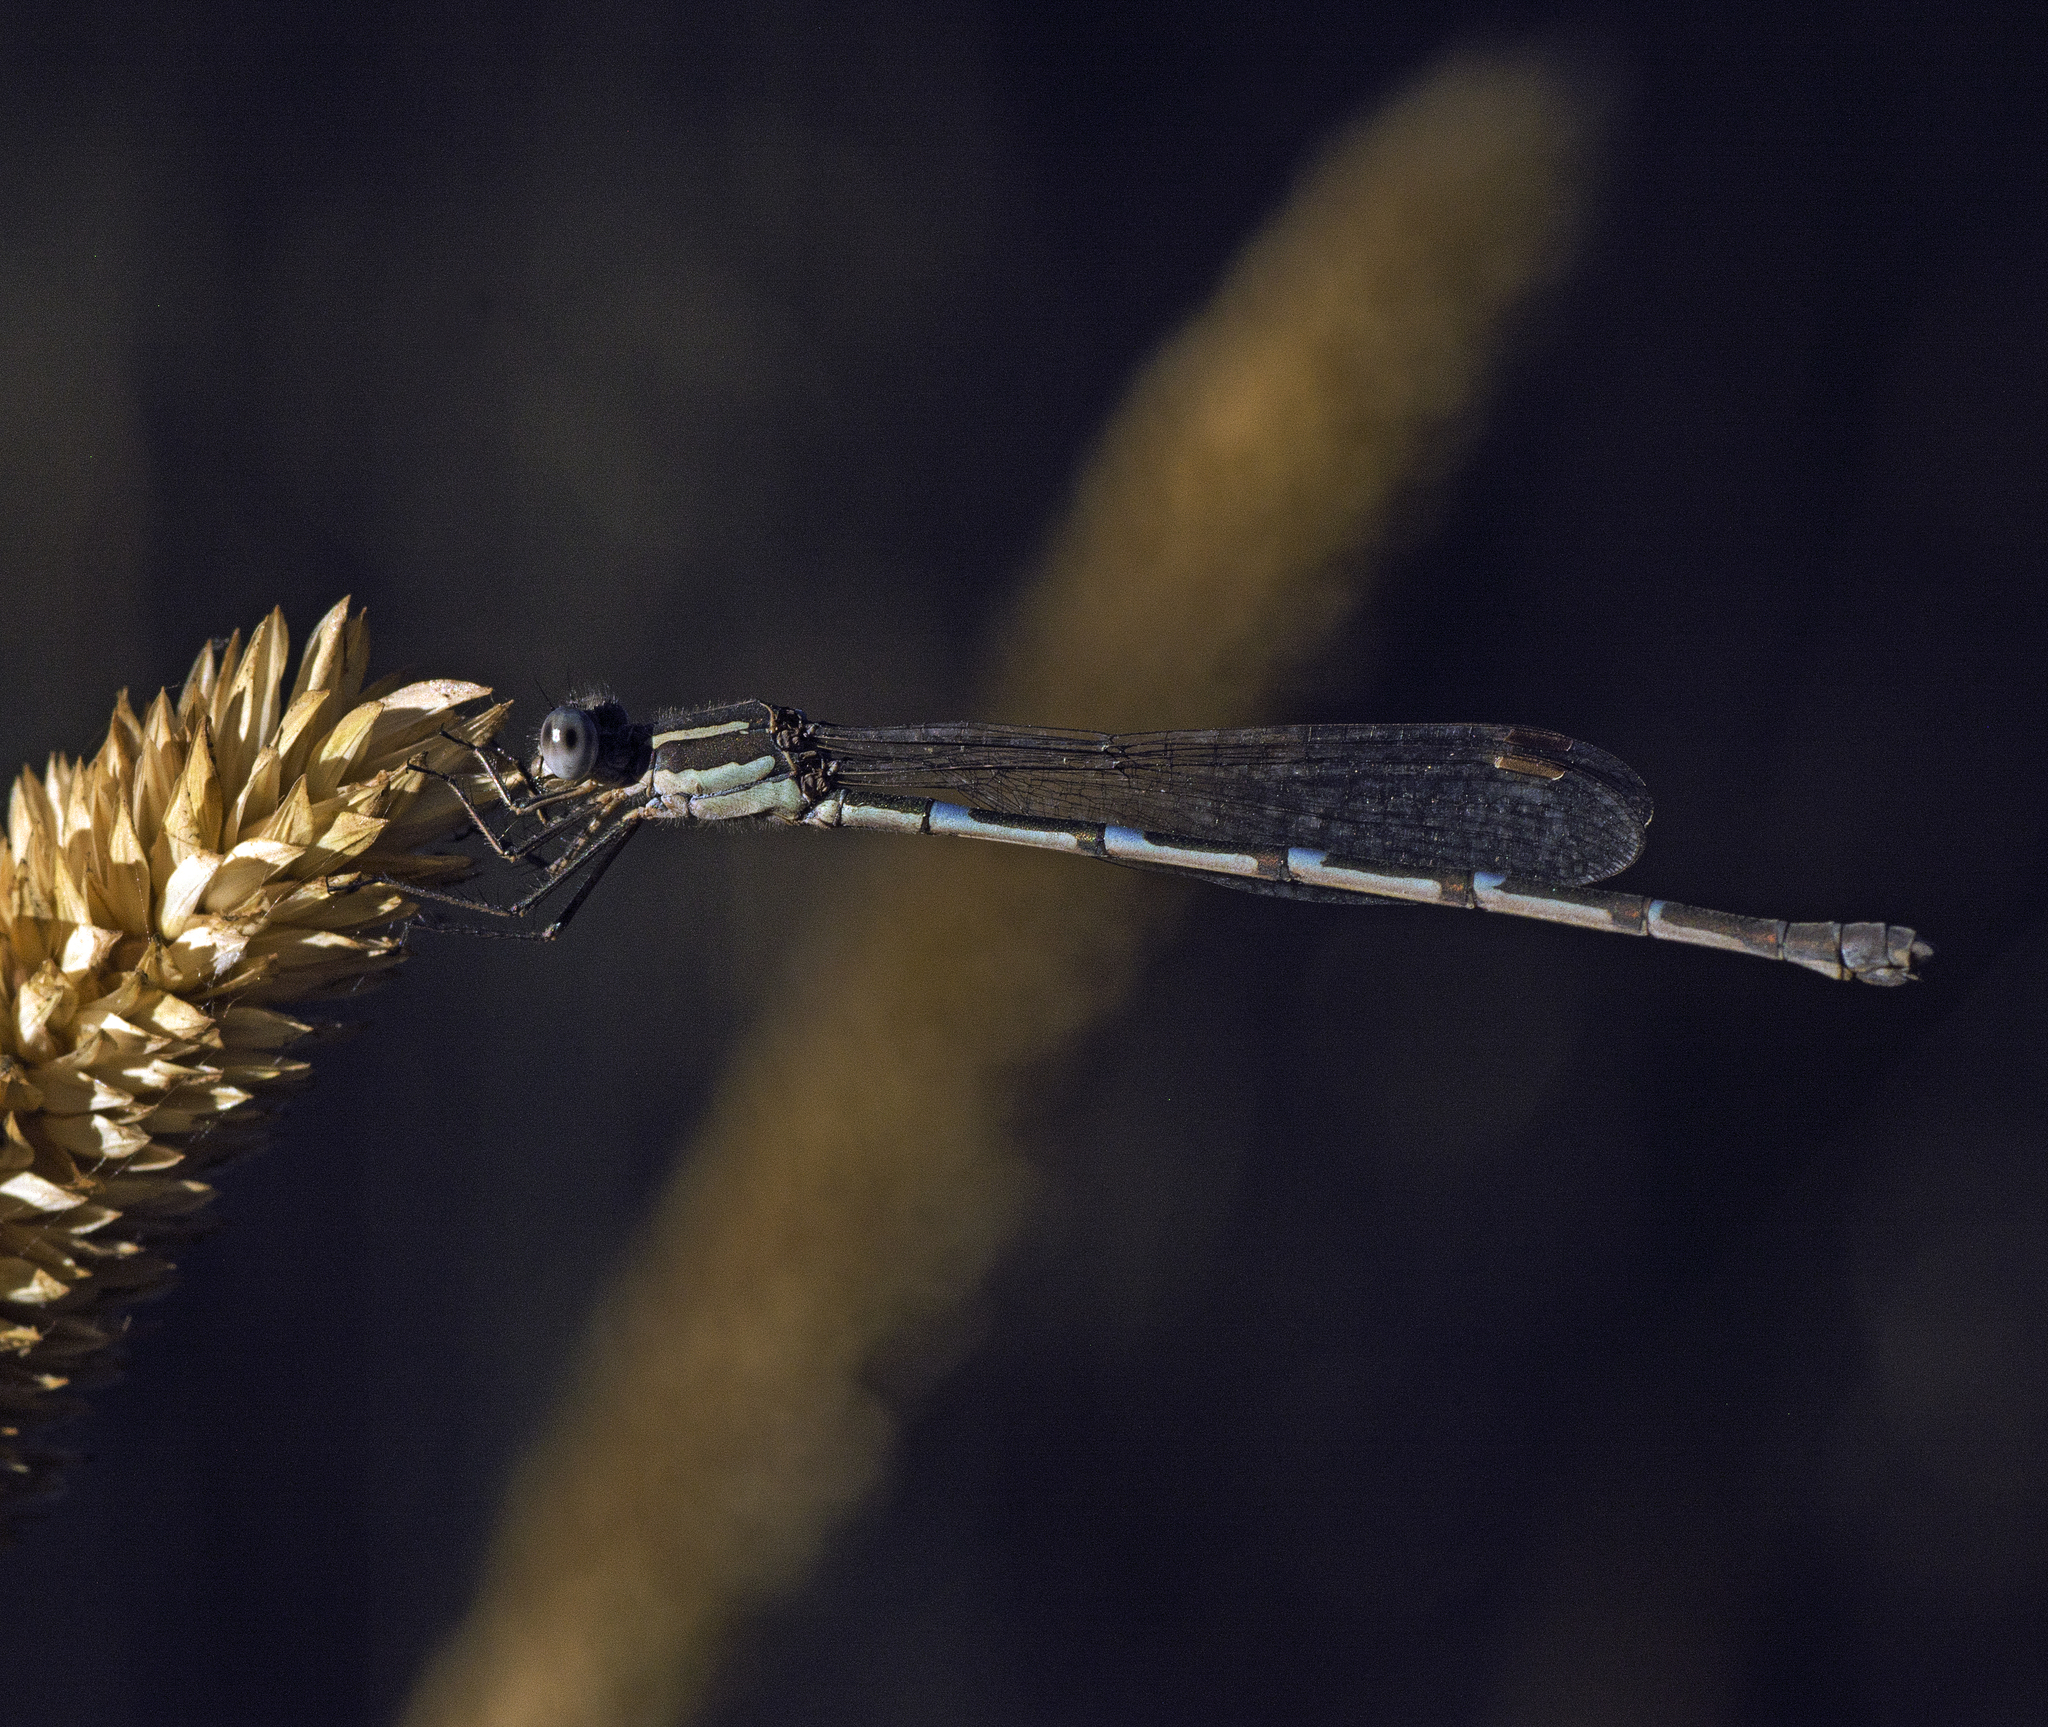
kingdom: Animalia
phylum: Arthropoda
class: Insecta
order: Odonata
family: Lestidae
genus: Austrolestes
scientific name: Austrolestes leda
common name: Wandering ringtail
